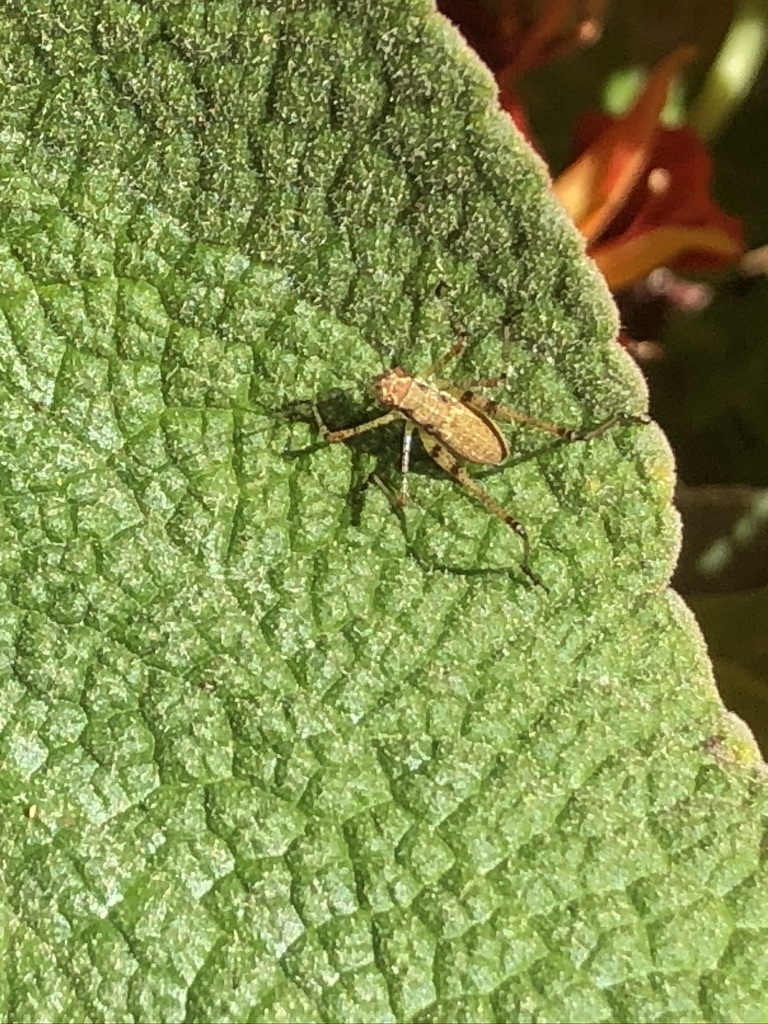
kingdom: Animalia
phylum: Arthropoda
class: Insecta
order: Orthoptera
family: Tettigoniidae
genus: Phaneroptera
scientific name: Phaneroptera nana
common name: Southern sickle bush-cricket
